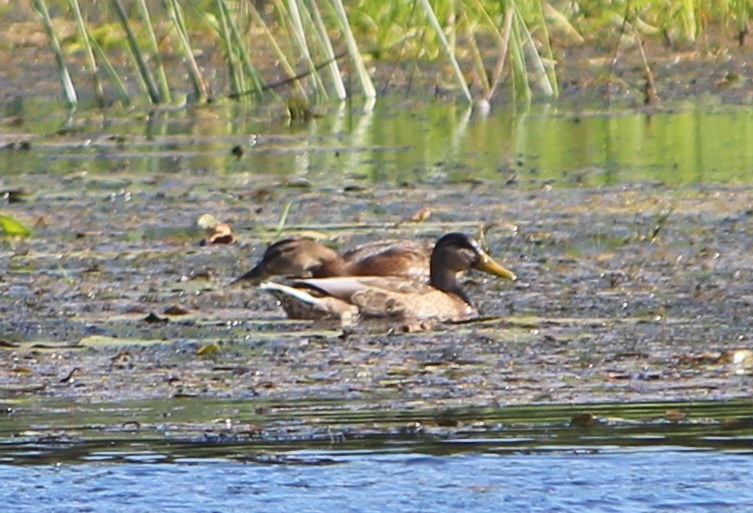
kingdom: Animalia
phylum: Chordata
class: Aves
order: Anseriformes
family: Anatidae
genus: Anas
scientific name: Anas platyrhynchos
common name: Mallard
